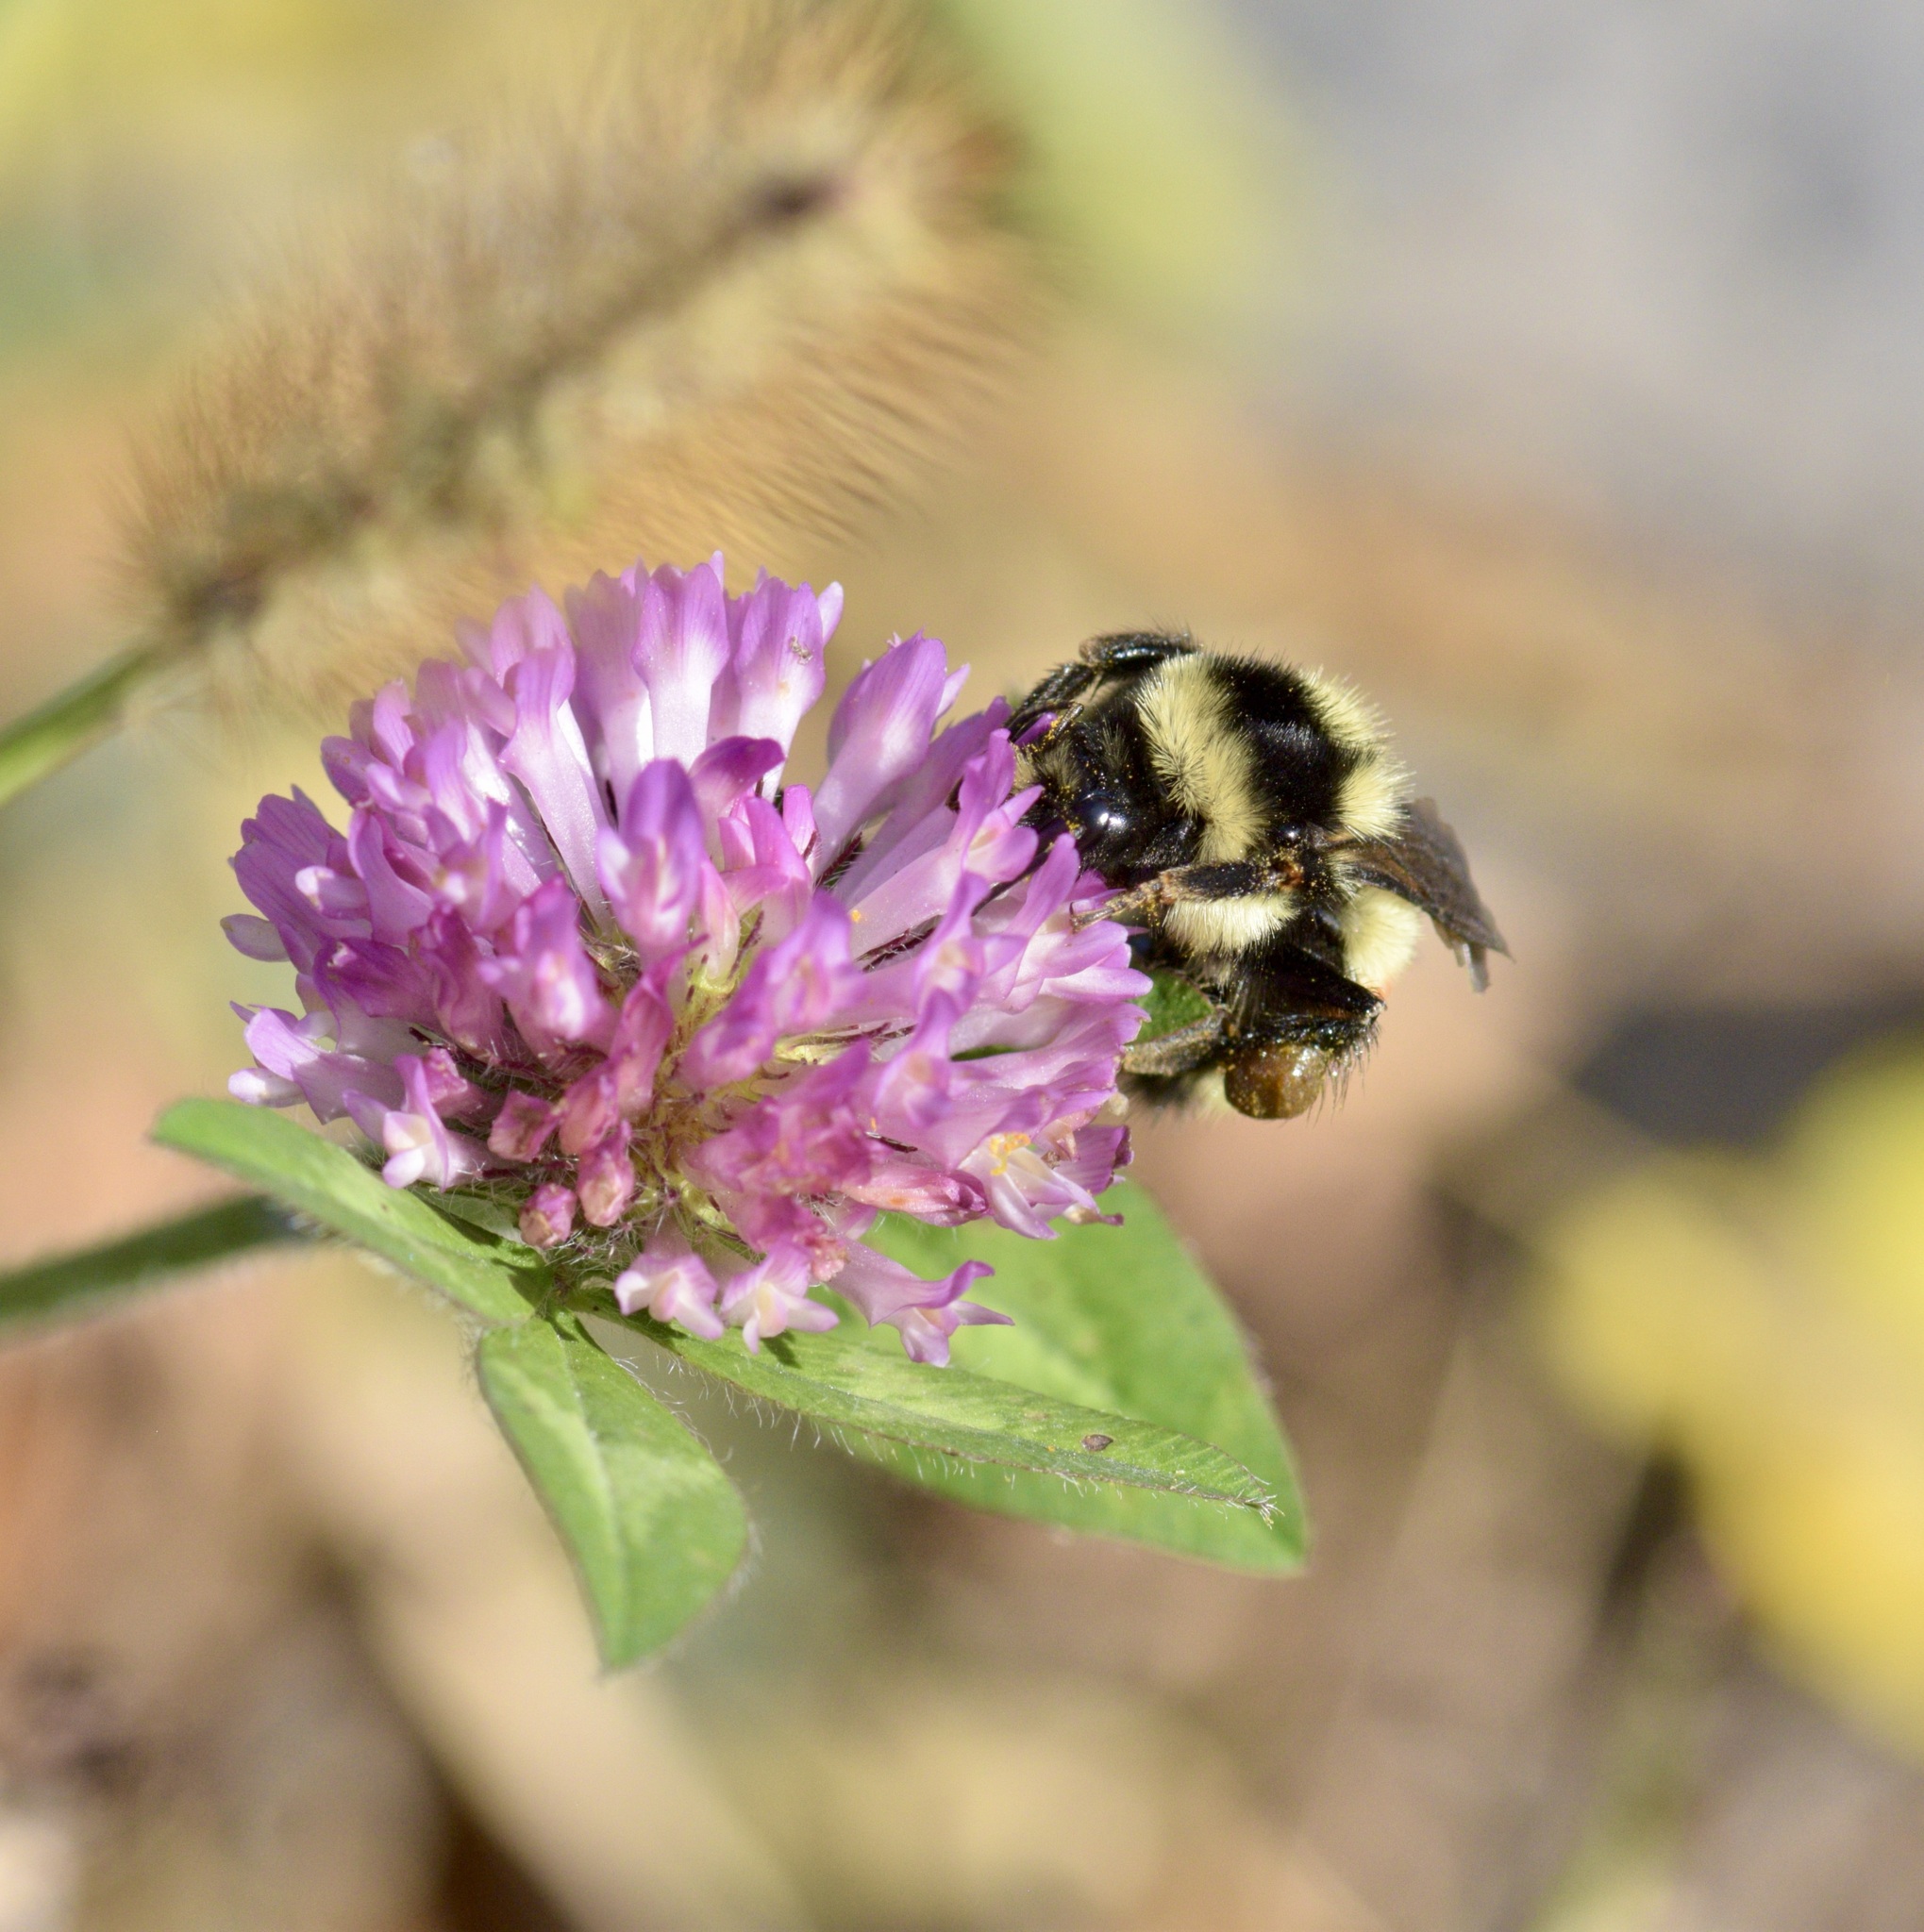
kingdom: Animalia
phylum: Arthropoda
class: Insecta
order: Hymenoptera
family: Apidae
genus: Bombus
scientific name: Bombus ternarius
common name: Tri-colored bumble bee
